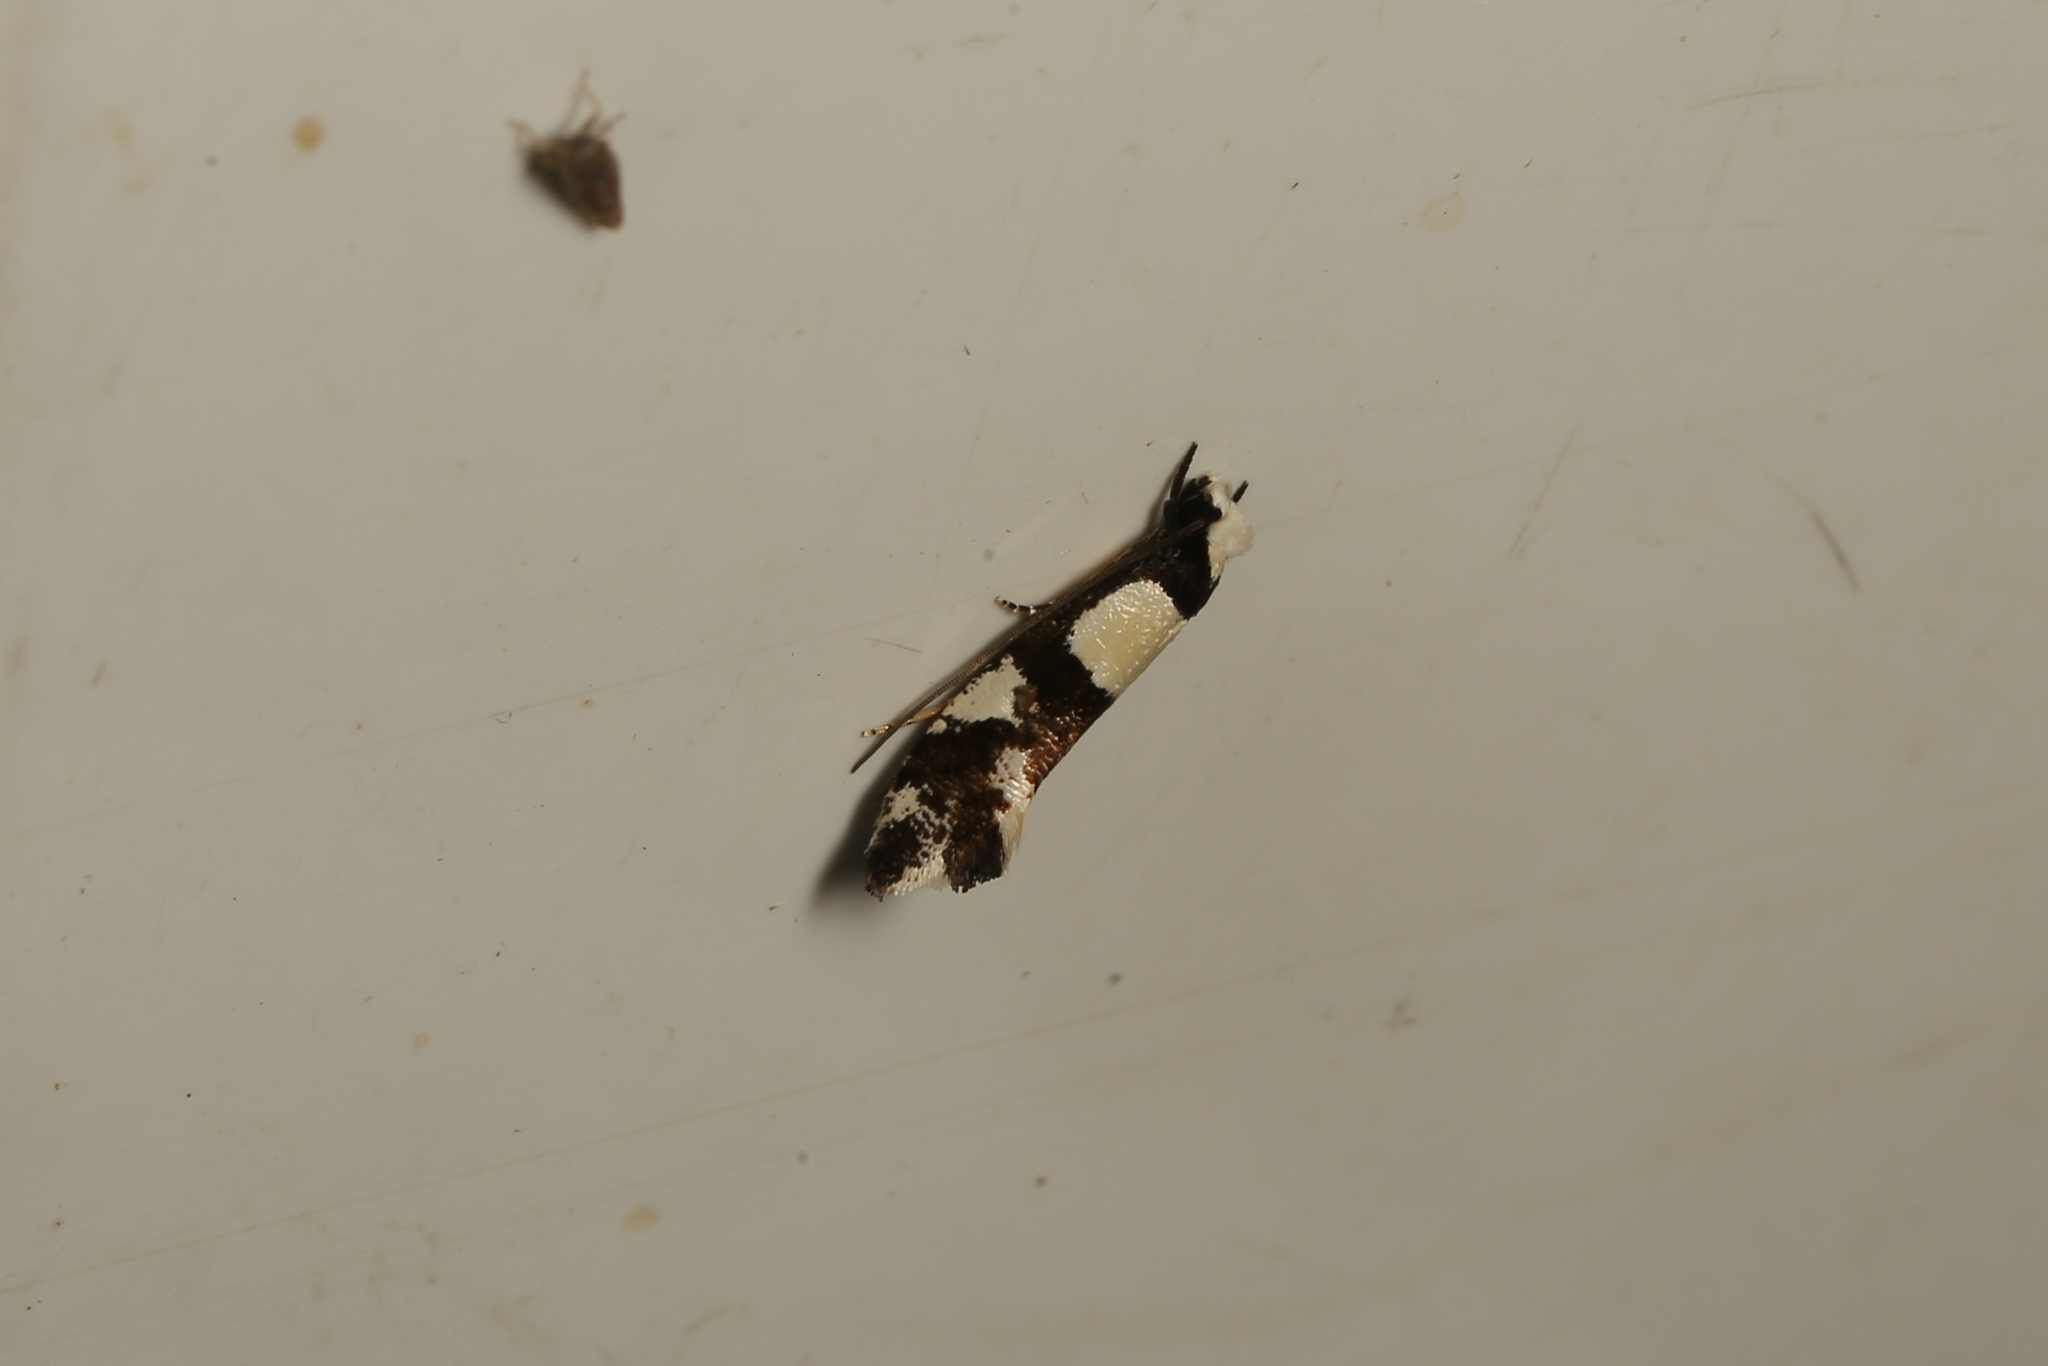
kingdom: Animalia
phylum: Arthropoda
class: Insecta
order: Lepidoptera
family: Tineidae
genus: Monopis
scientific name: Monopis icterogastra
